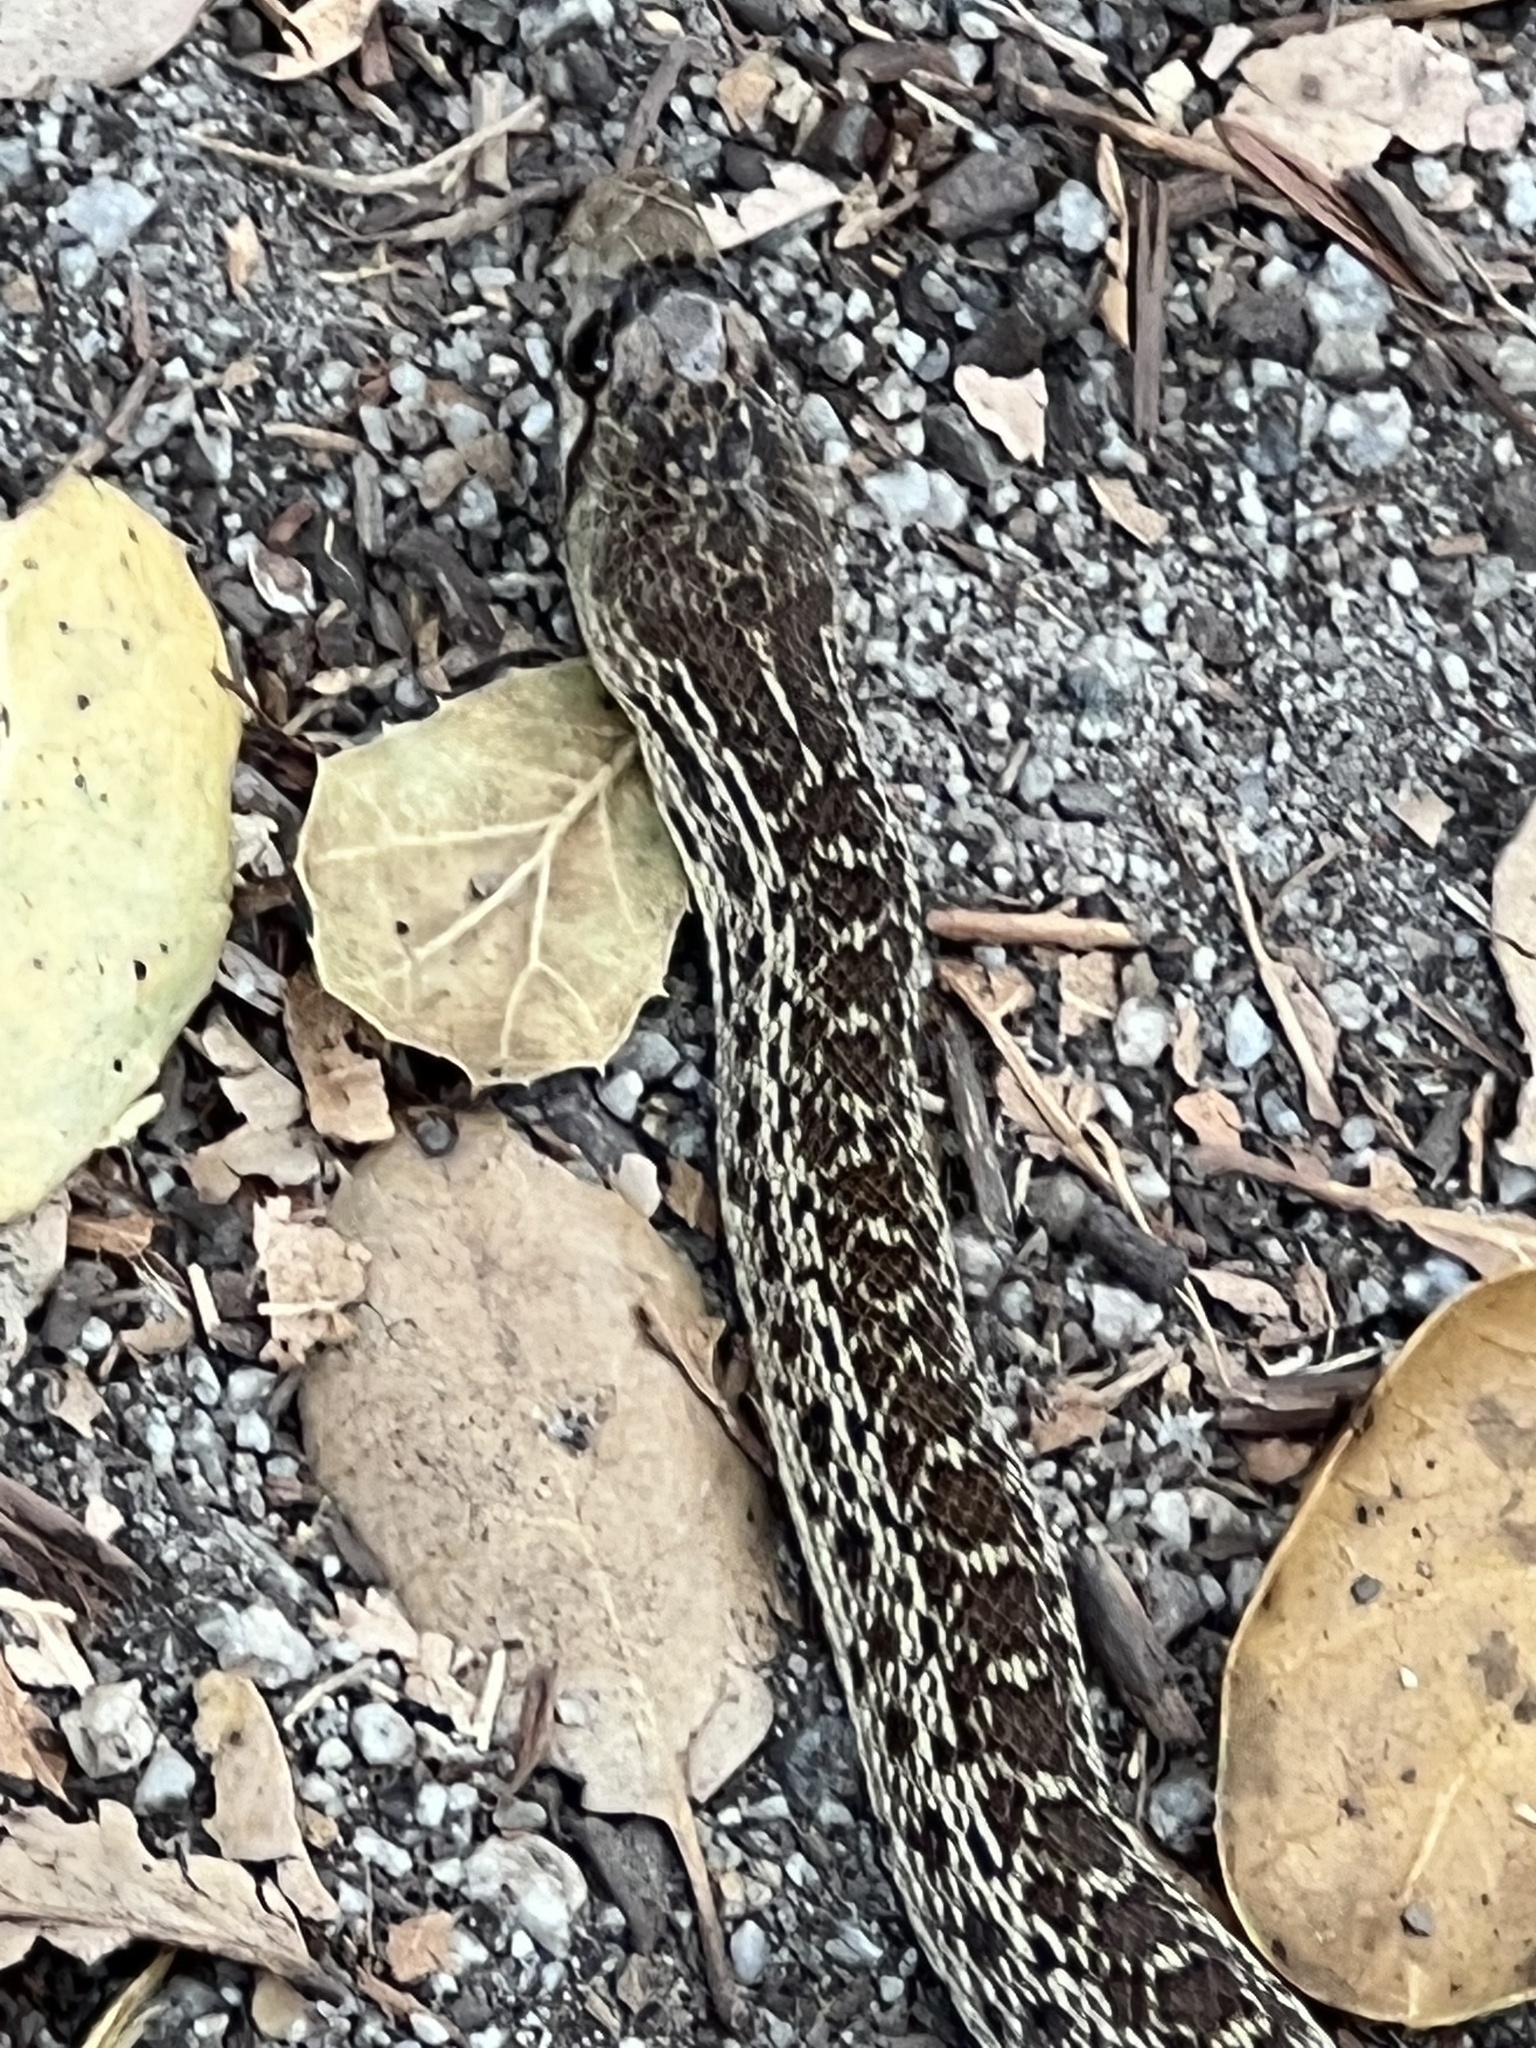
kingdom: Animalia
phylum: Chordata
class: Squamata
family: Colubridae
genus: Pituophis
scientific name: Pituophis catenifer
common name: Gopher snake
